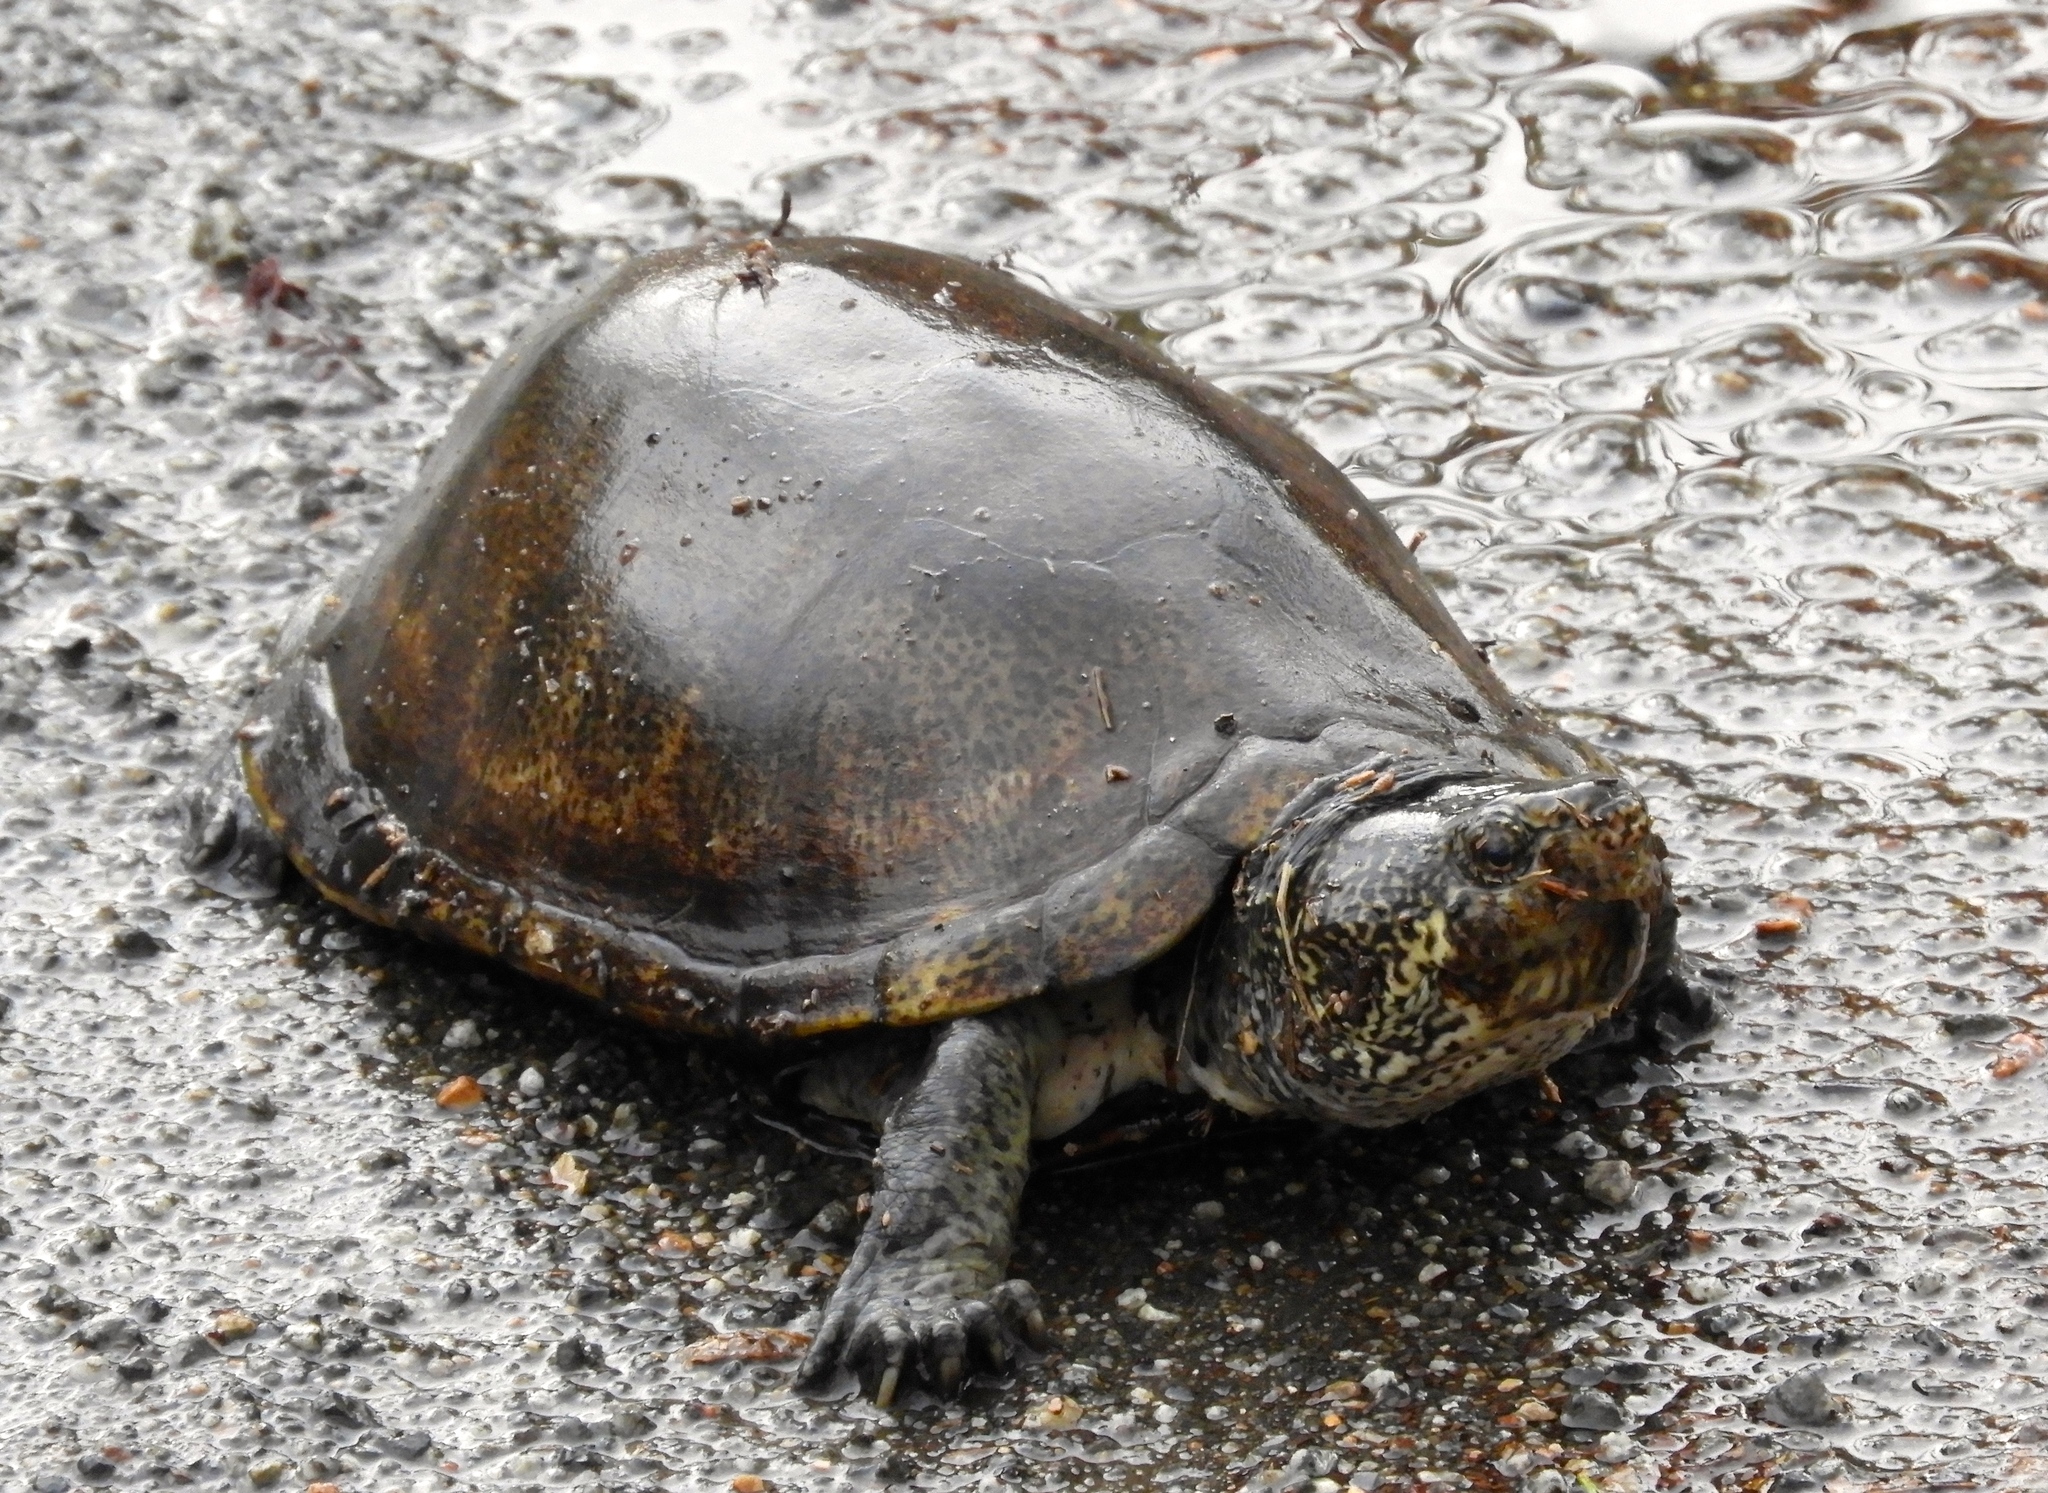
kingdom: Animalia
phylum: Chordata
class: Testudines
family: Kinosternidae
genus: Kinosternon
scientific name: Kinosternon integrum
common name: Mexican mud turtle
